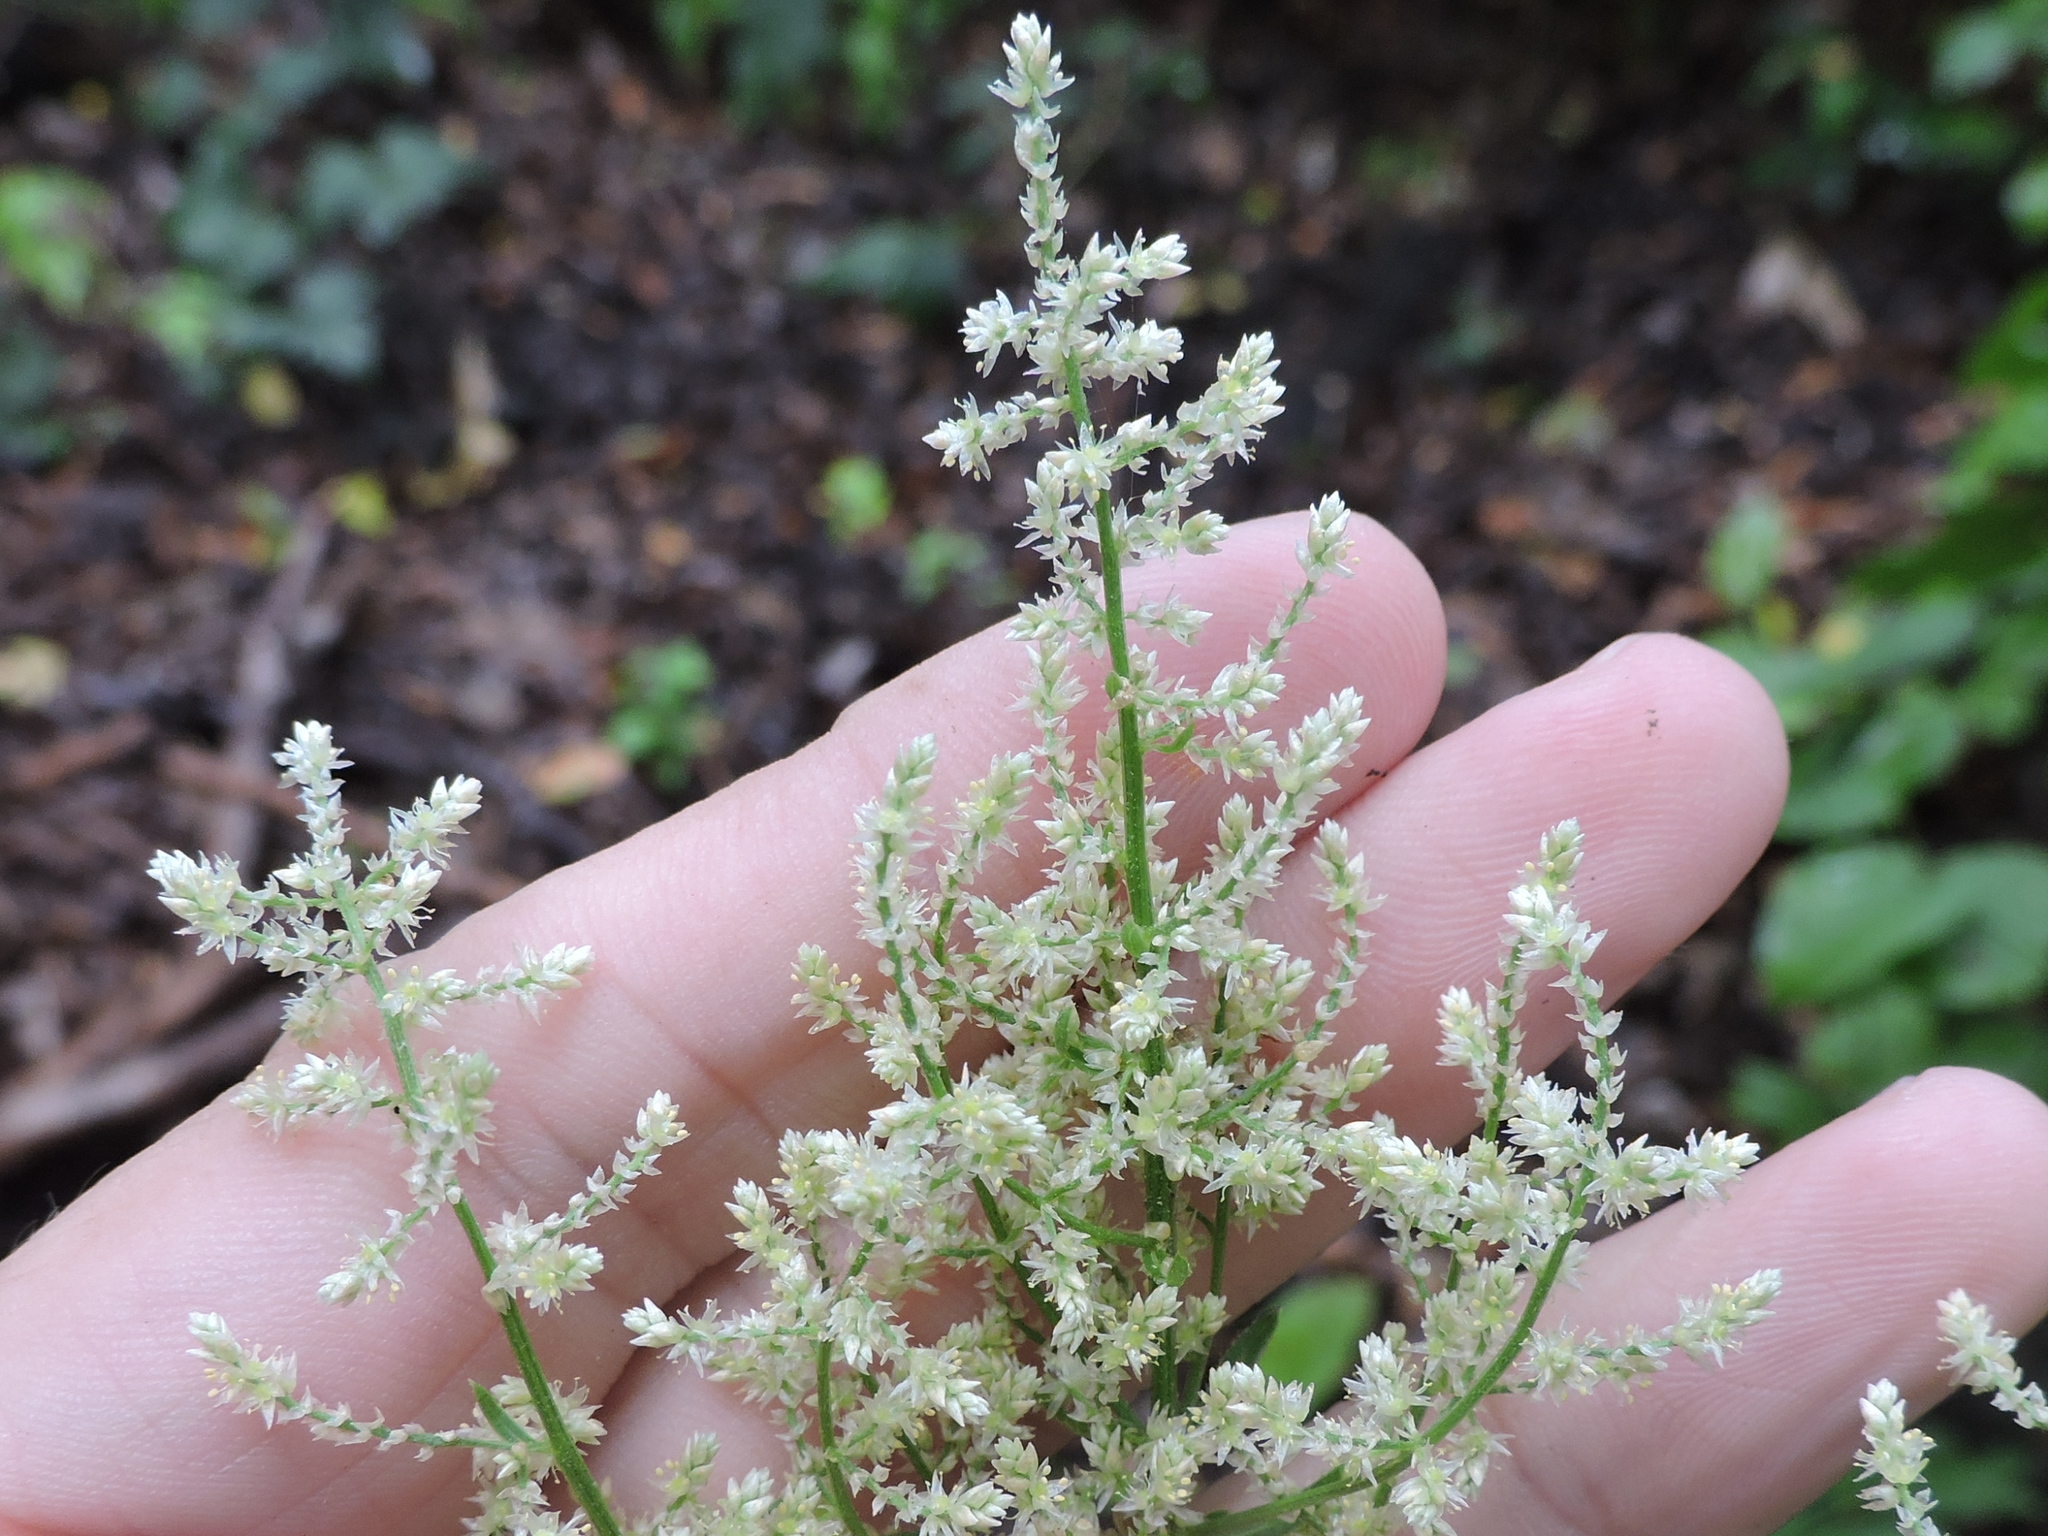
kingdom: Plantae
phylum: Tracheophyta
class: Magnoliopsida
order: Caryophyllales
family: Amaranthaceae
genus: Iresine
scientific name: Iresine rhizomatosa
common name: Juda's-bush
